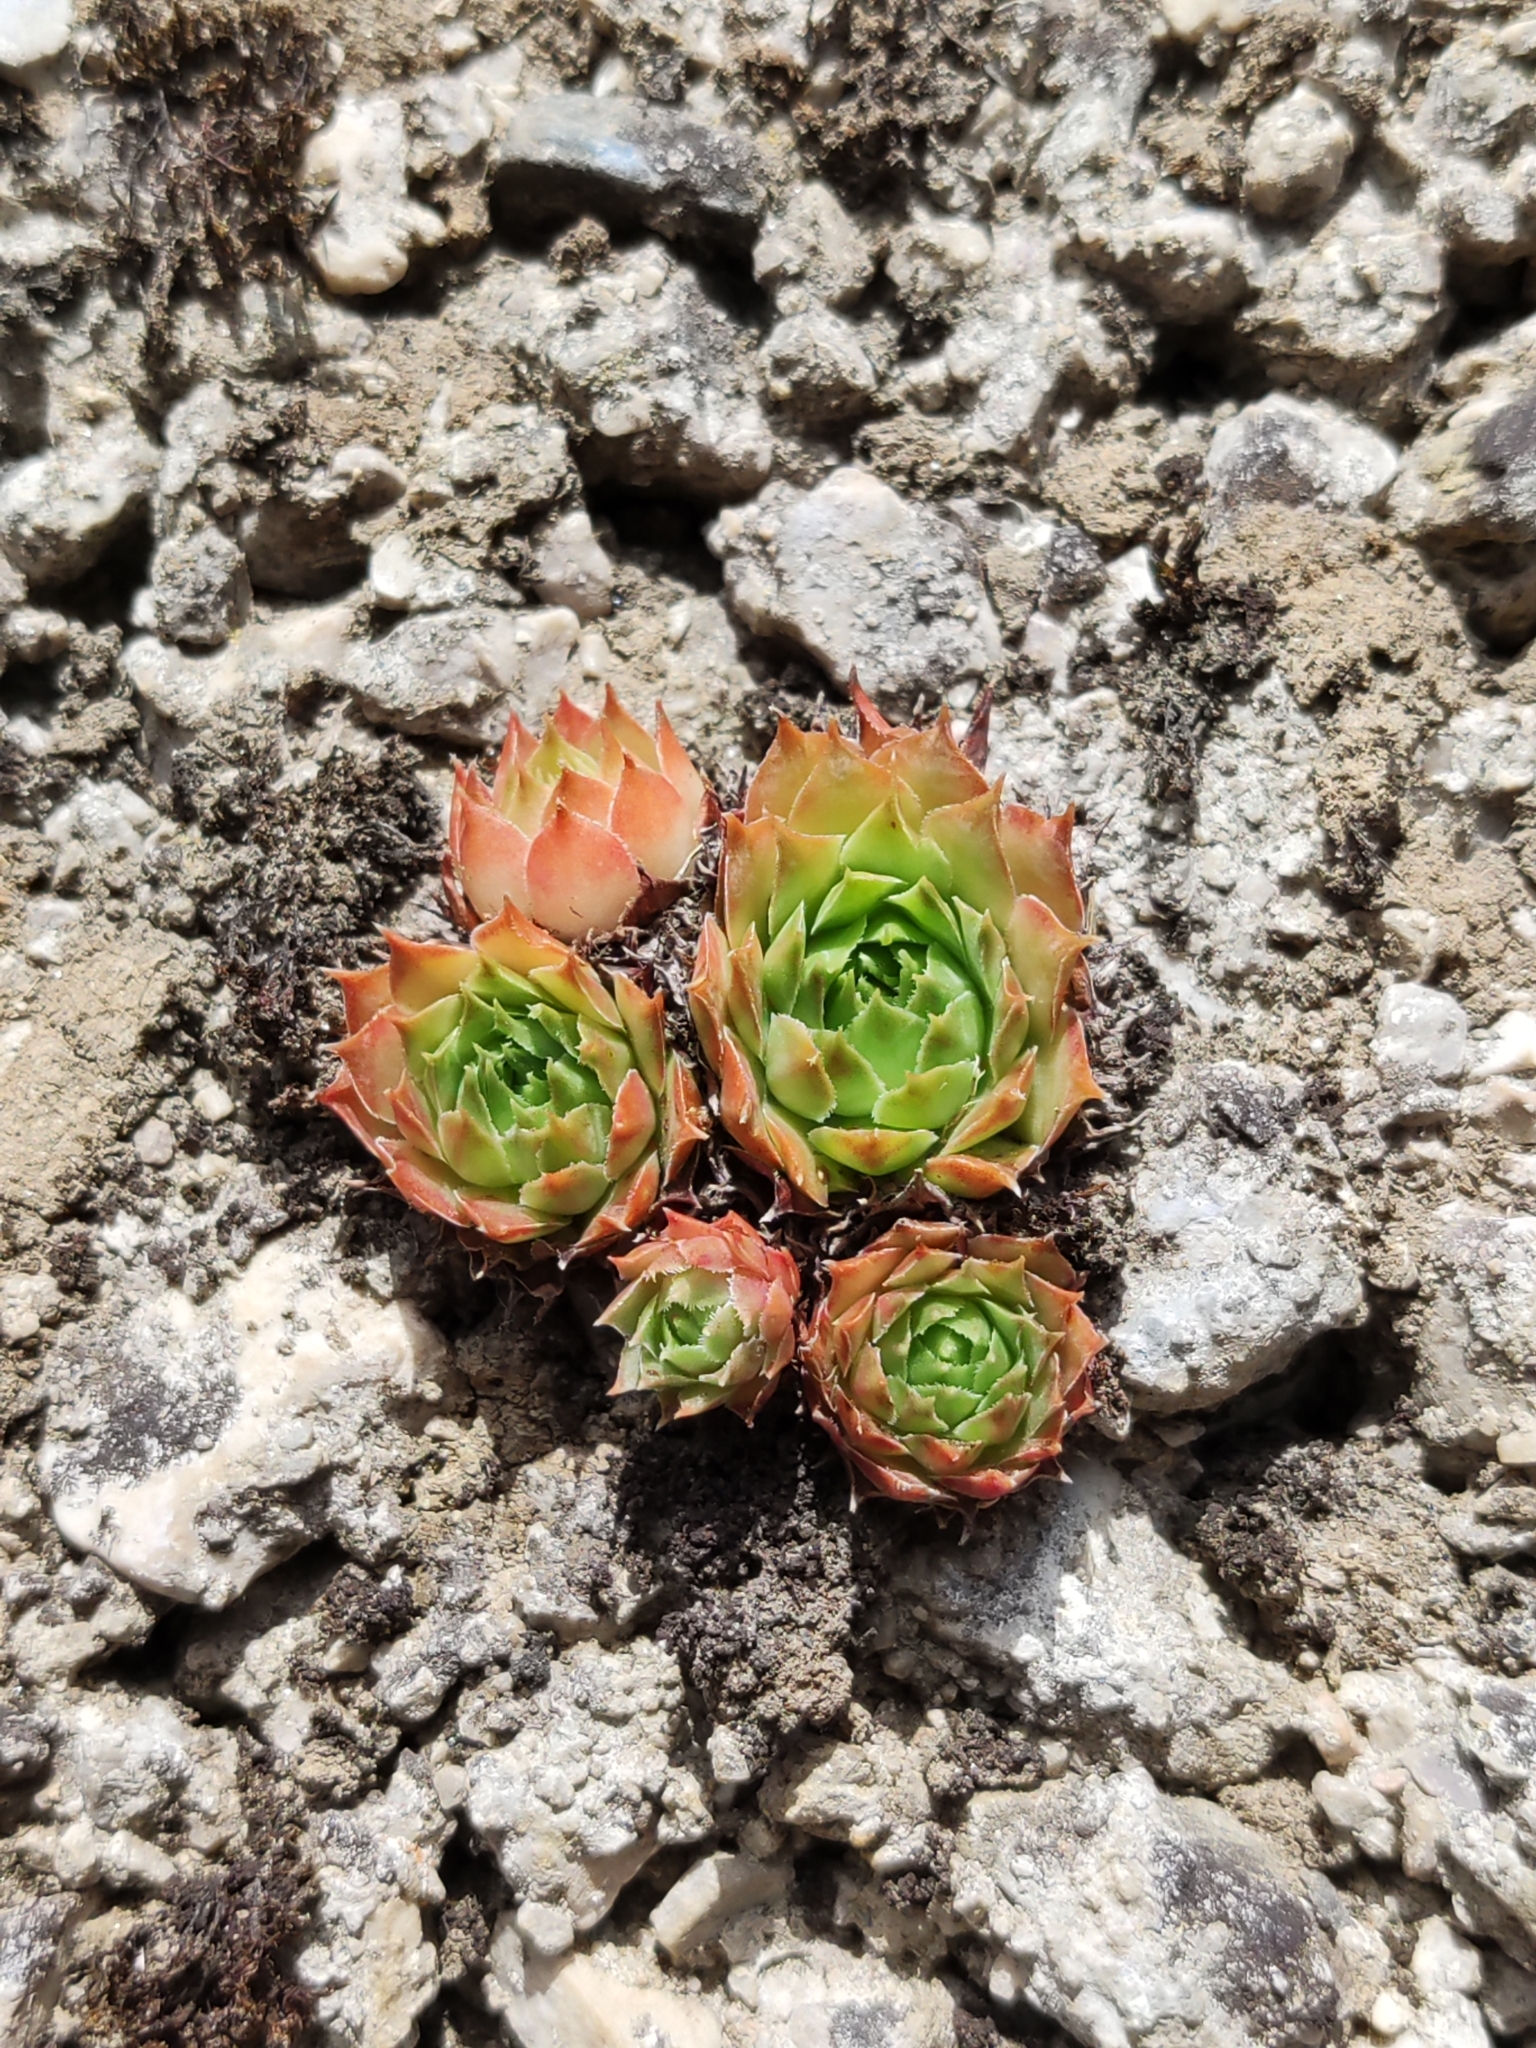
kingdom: Plantae
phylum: Tracheophyta
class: Magnoliopsida
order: Saxifragales
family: Crassulaceae
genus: Sempervivum
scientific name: Sempervivum tectorum
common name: House-leek
